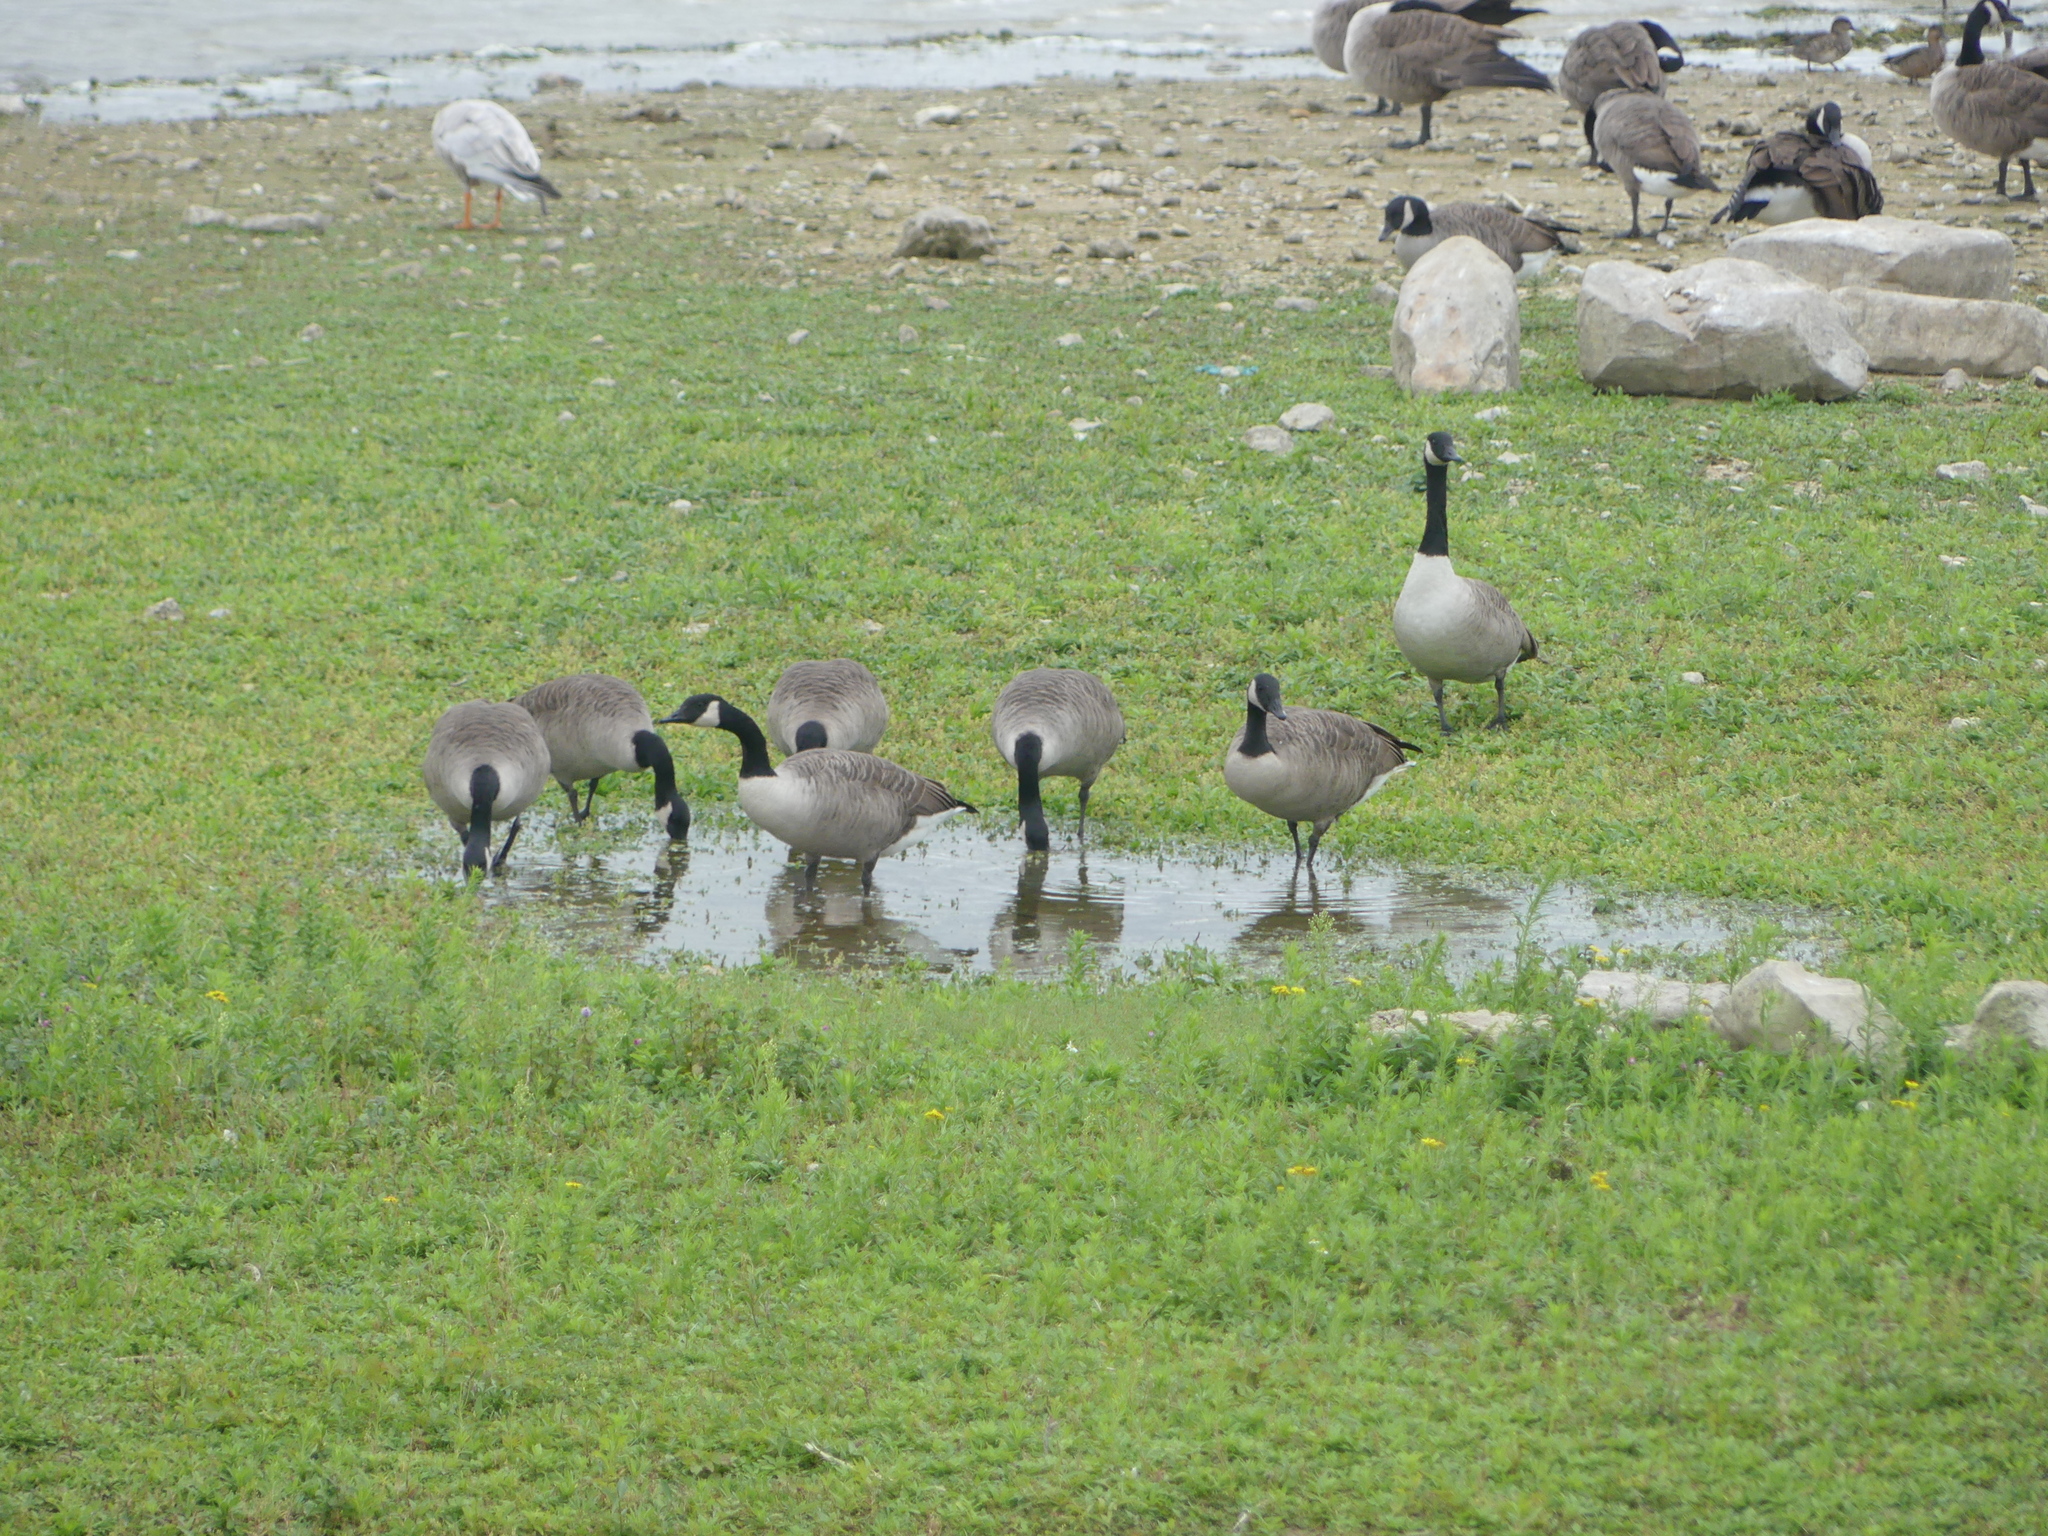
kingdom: Animalia
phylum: Chordata
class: Aves
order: Anseriformes
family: Anatidae
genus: Branta
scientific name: Branta canadensis
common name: Canada goose
